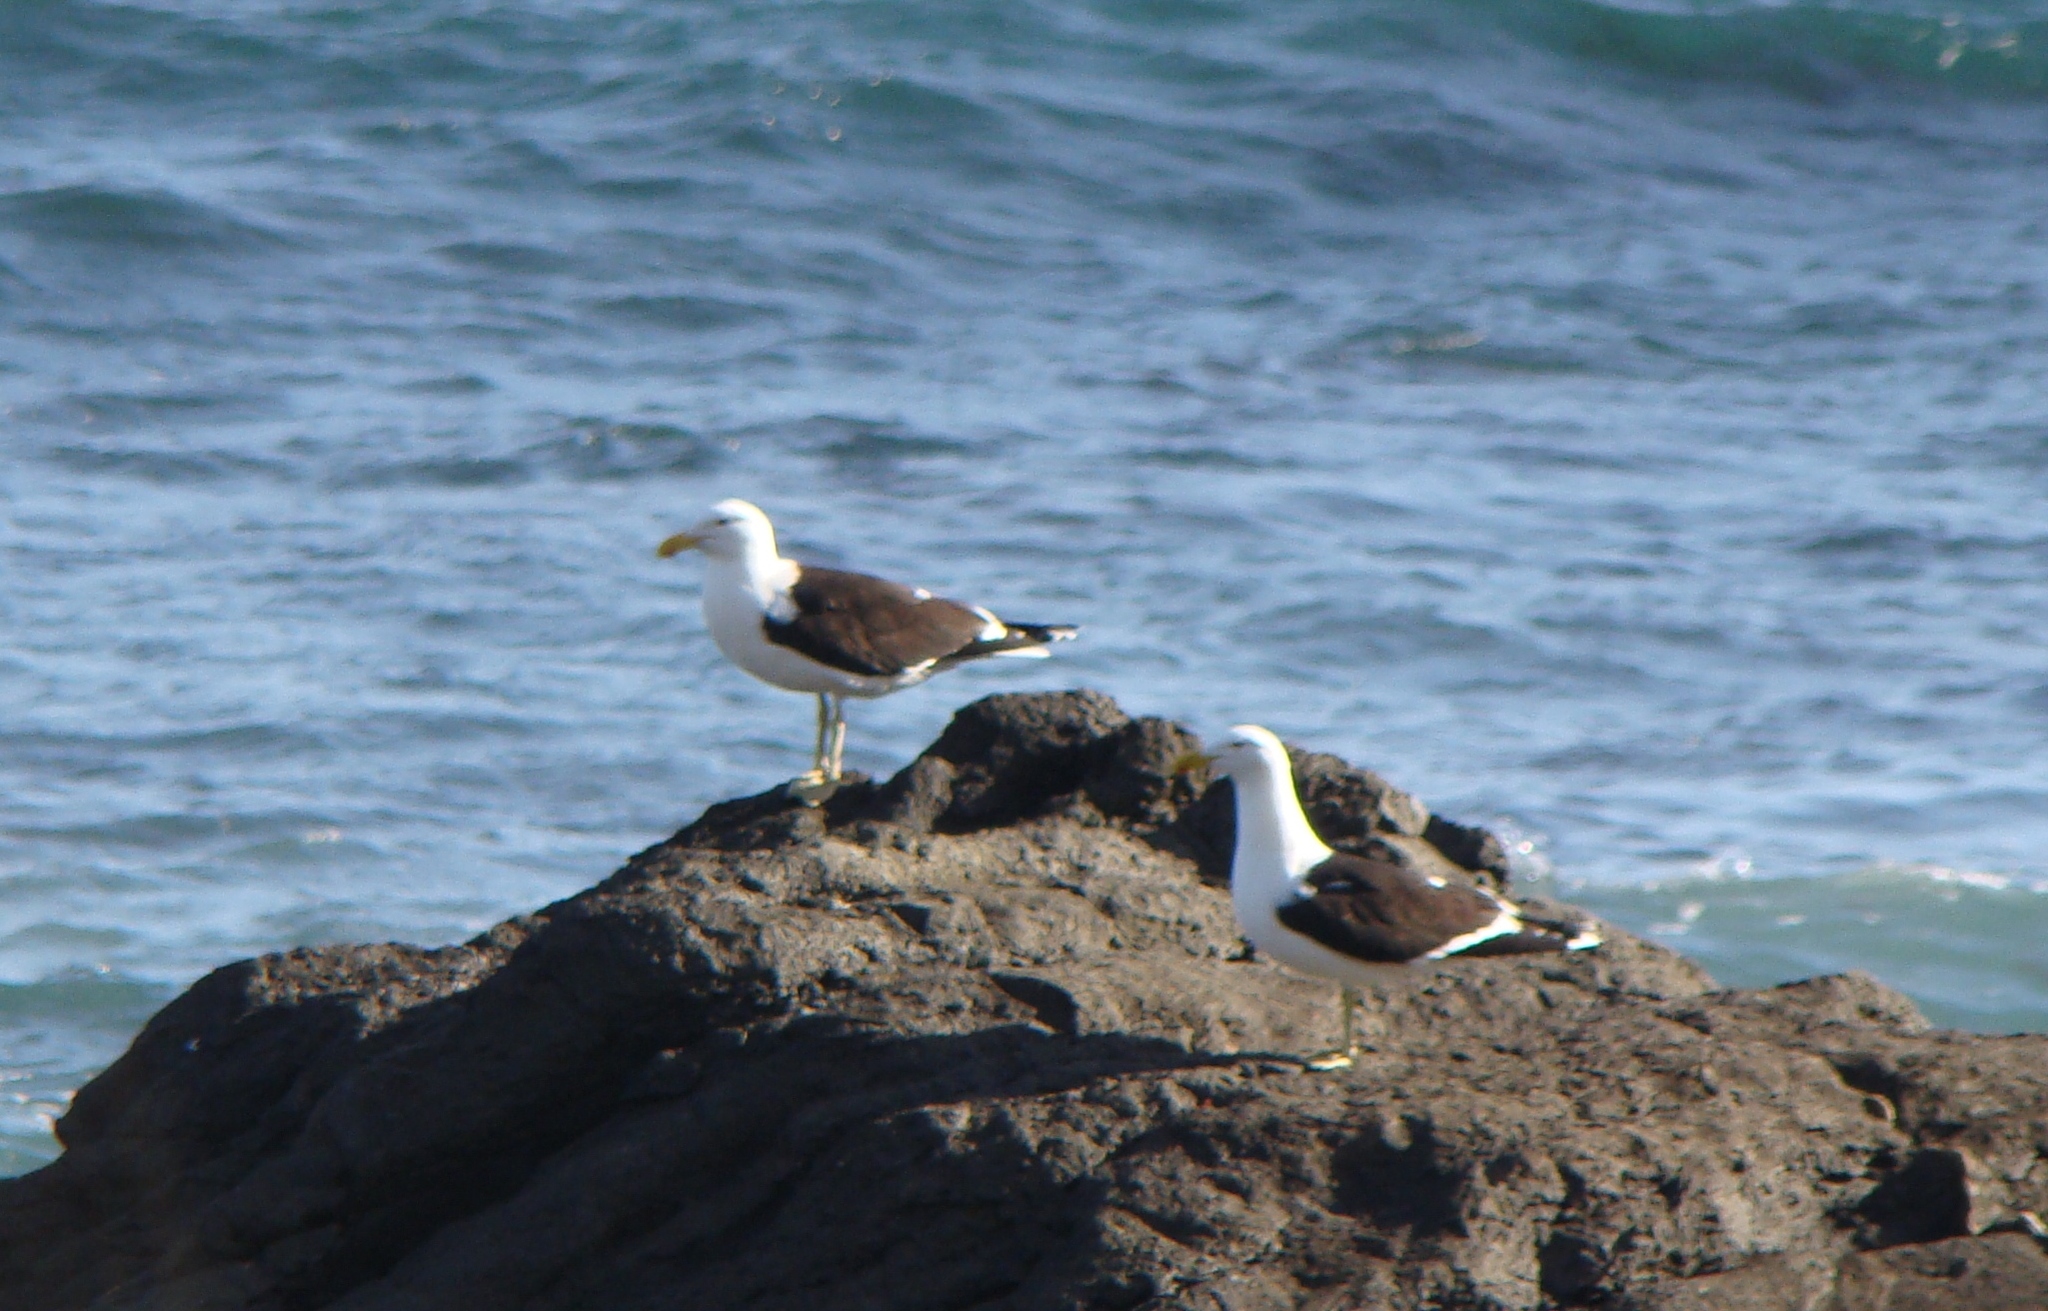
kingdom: Animalia
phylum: Chordata
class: Aves
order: Charadriiformes
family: Laridae
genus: Larus
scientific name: Larus dominicanus
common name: Kelp gull
